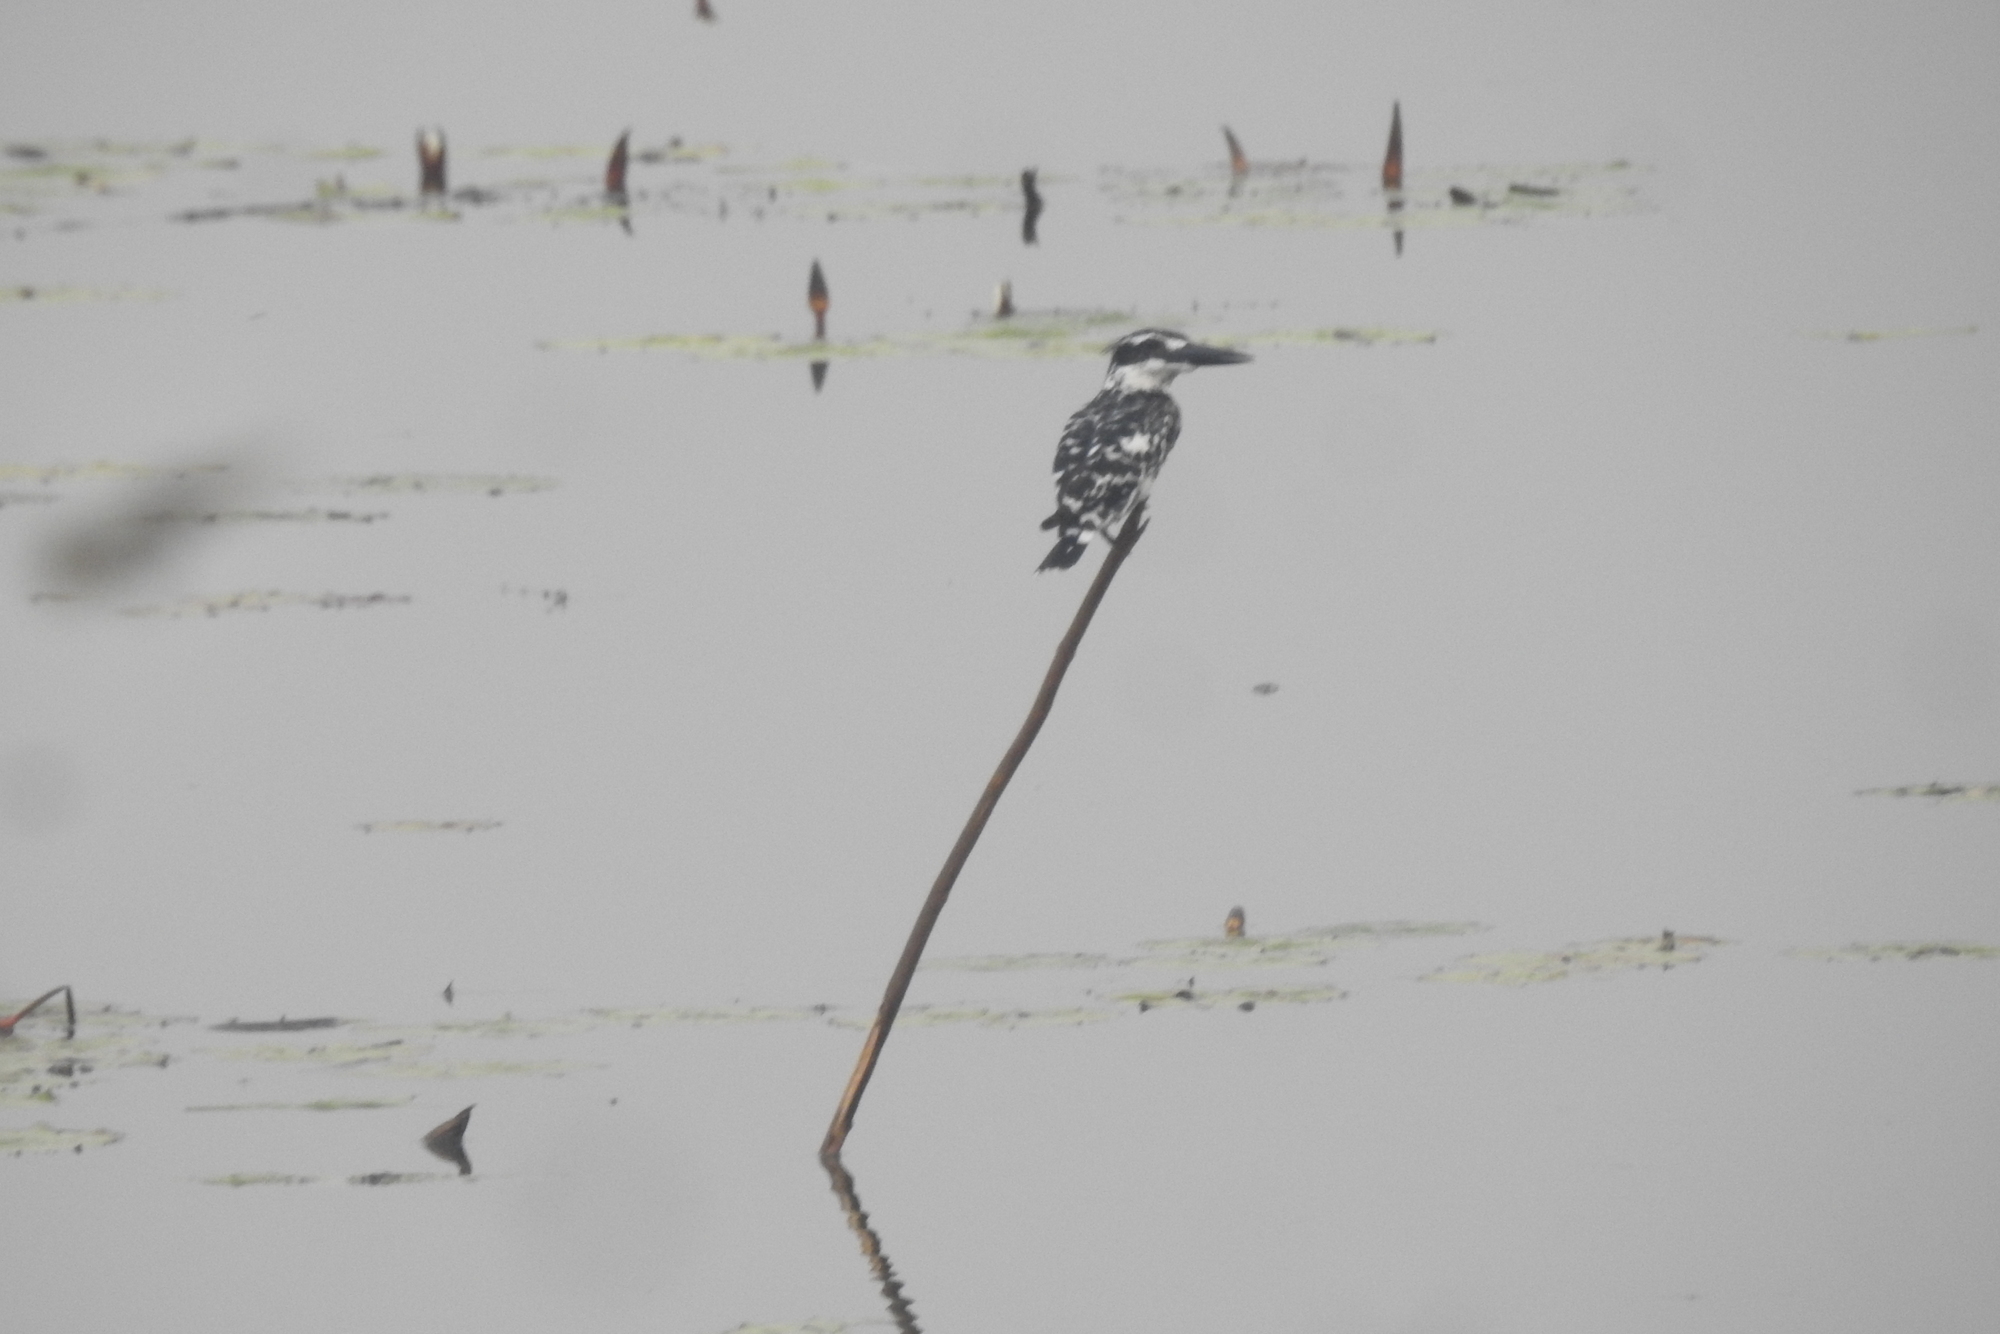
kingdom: Animalia
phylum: Chordata
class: Aves
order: Coraciiformes
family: Alcedinidae
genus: Ceryle
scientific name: Ceryle rudis
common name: Pied kingfisher
